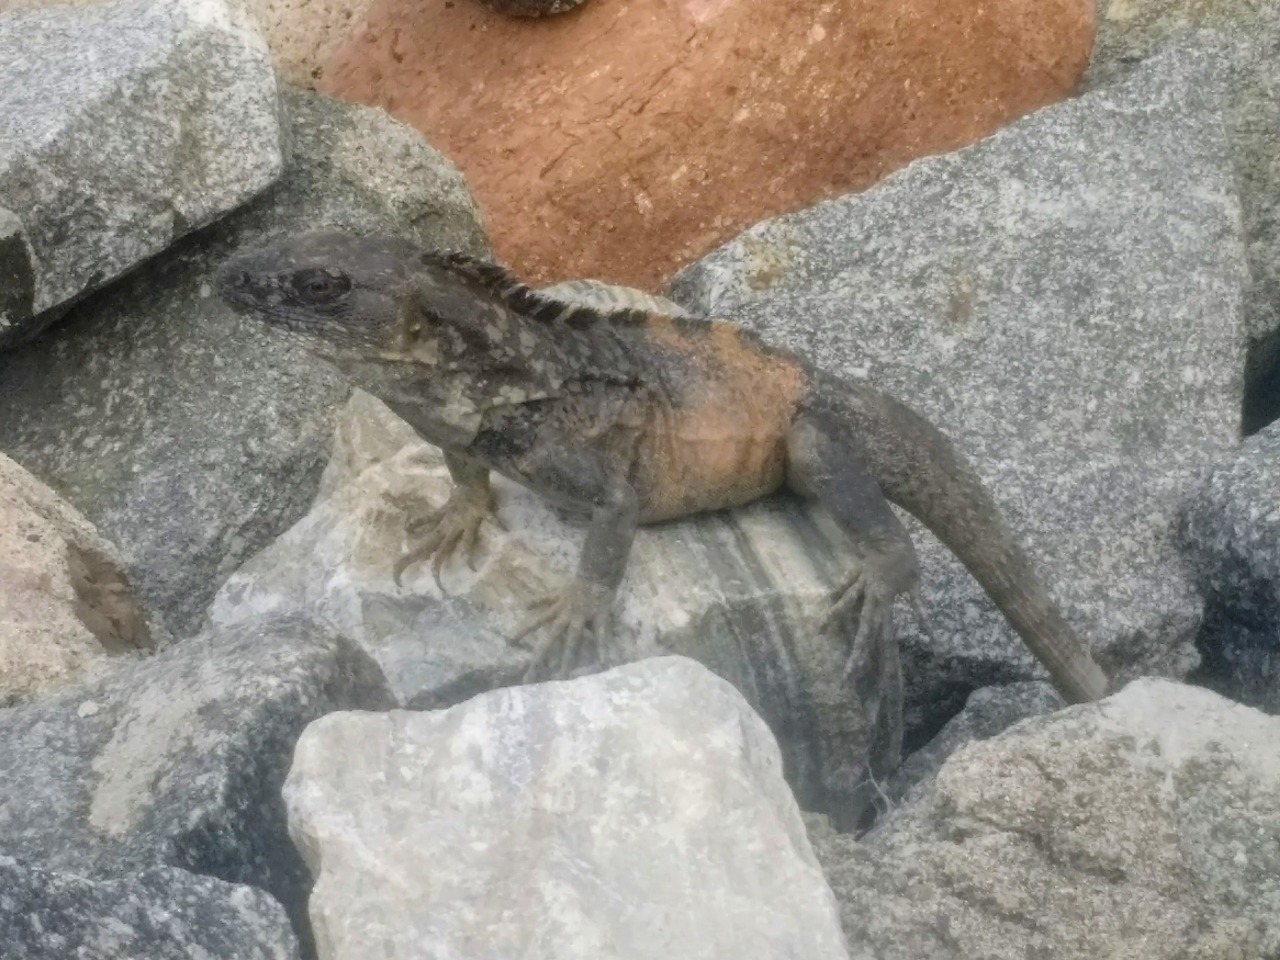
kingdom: Animalia
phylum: Chordata
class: Squamata
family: Iguanidae
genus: Ctenosaura
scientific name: Ctenosaura pectinata
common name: Guerreran spiny-tailed iguana
